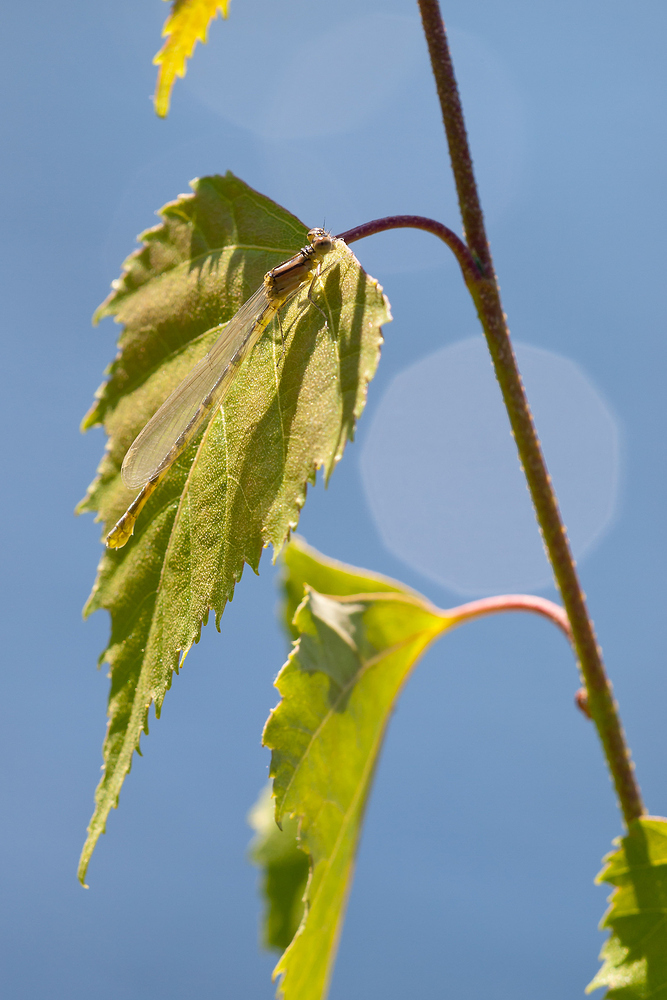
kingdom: Animalia
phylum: Arthropoda
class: Insecta
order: Odonata
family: Coenagrionidae
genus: Enallagma
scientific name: Enallagma cyathigerum
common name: Common blue damselfly
